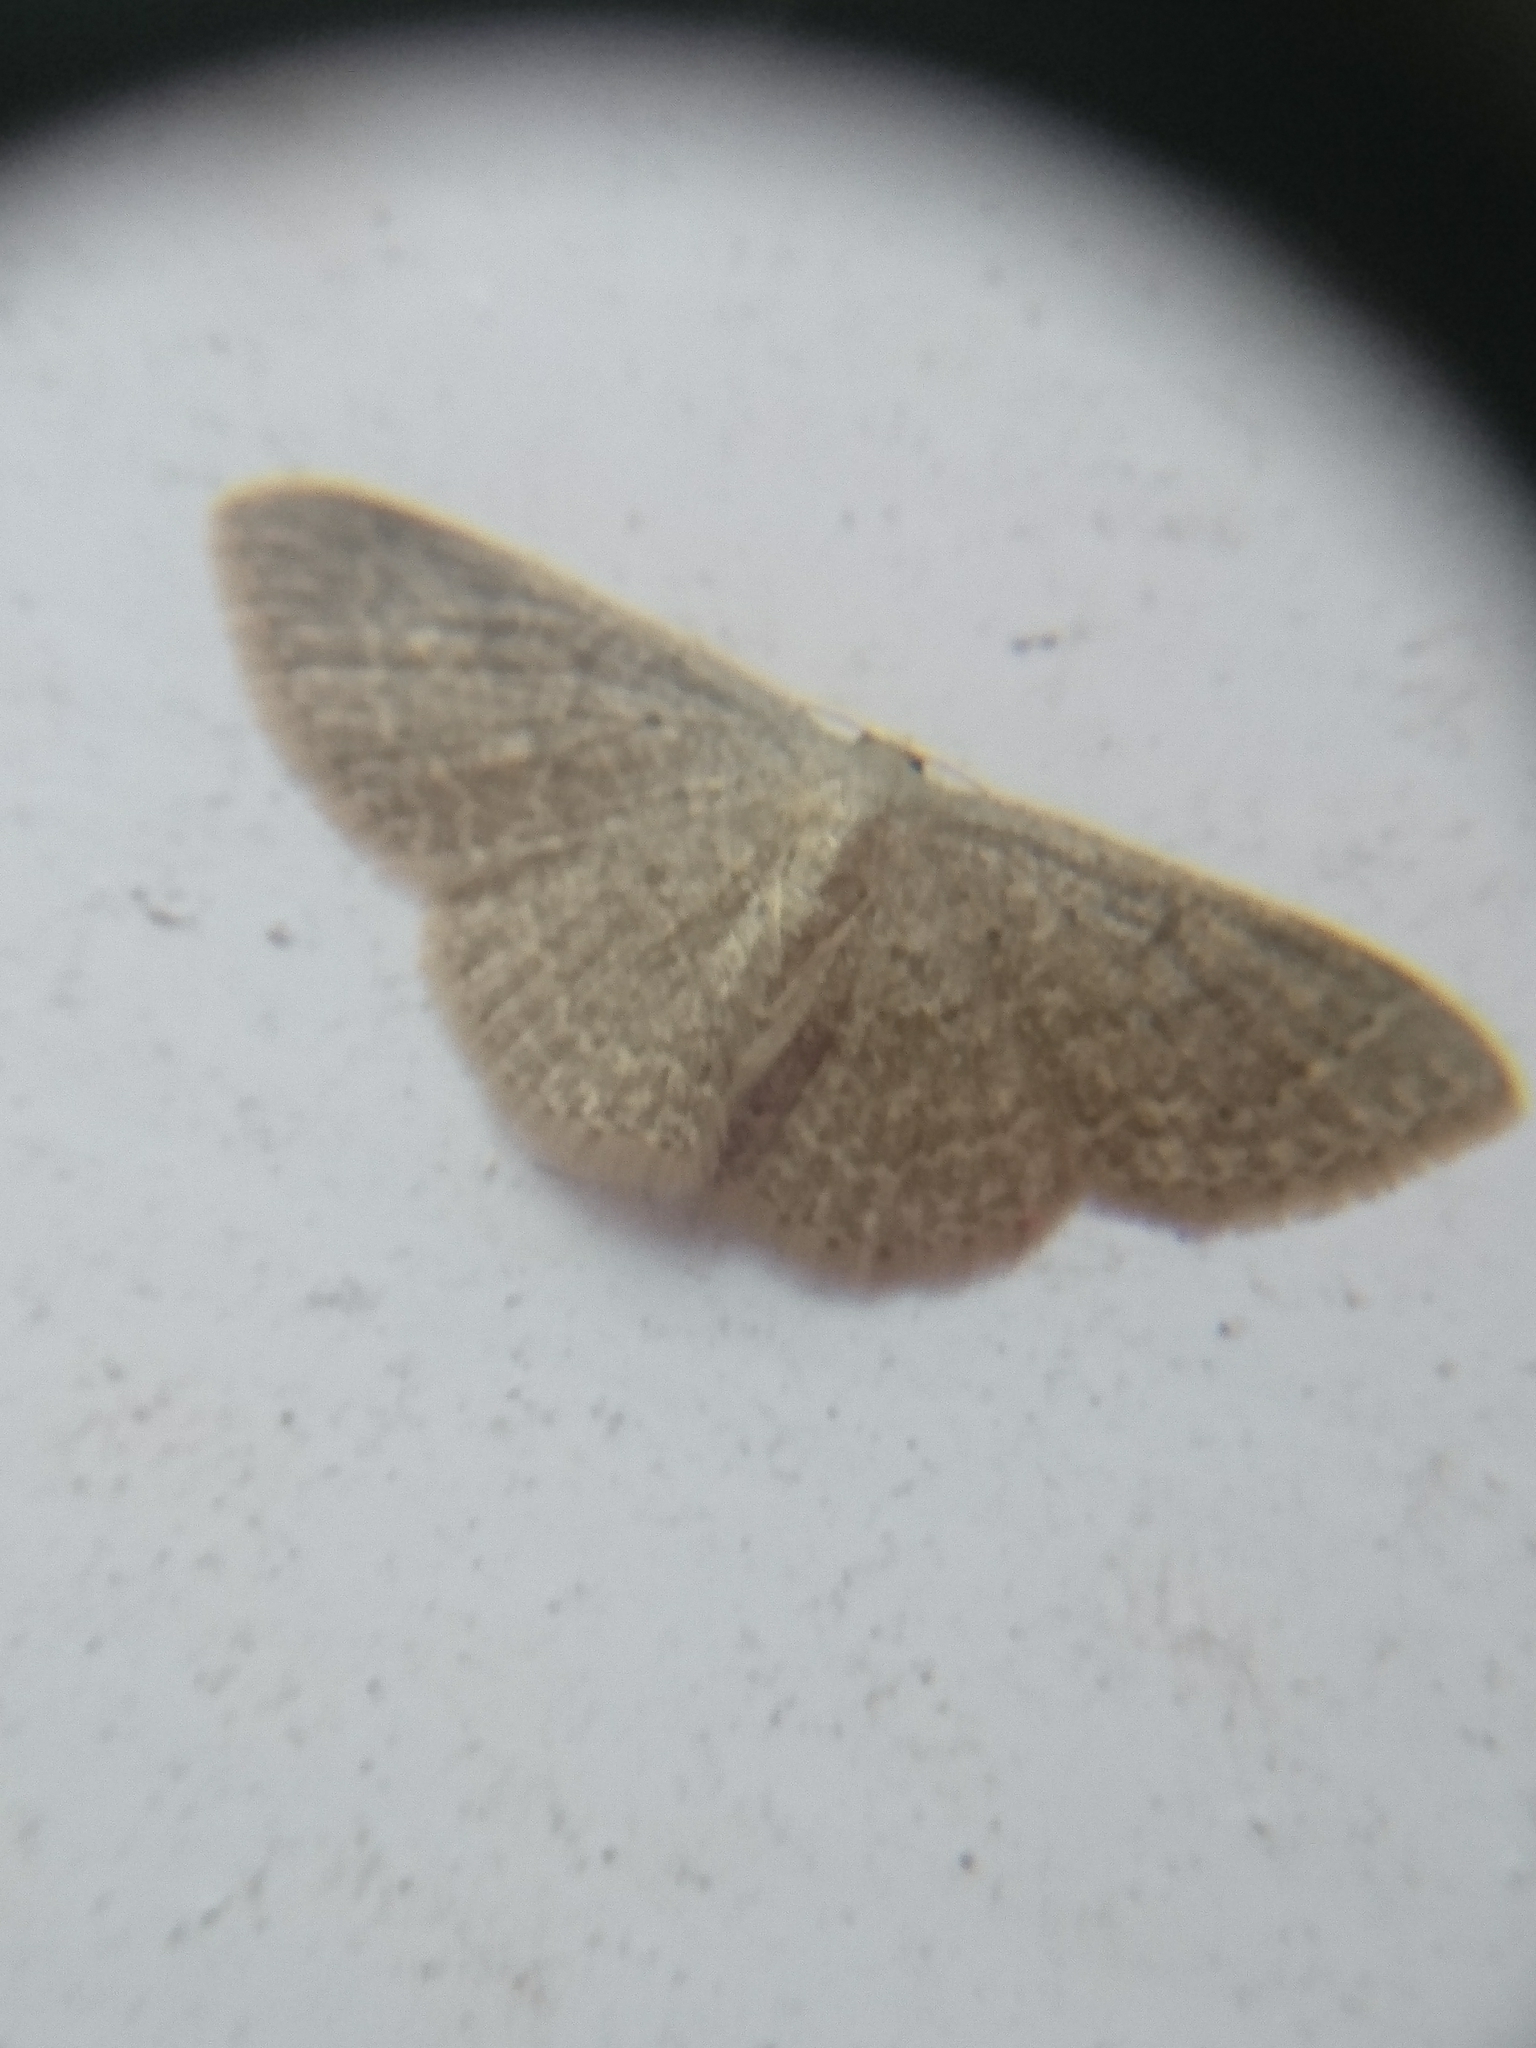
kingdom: Animalia
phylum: Arthropoda
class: Insecta
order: Lepidoptera
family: Geometridae
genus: Pleuroprucha
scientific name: Pleuroprucha insulsaria
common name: Common tan wave
